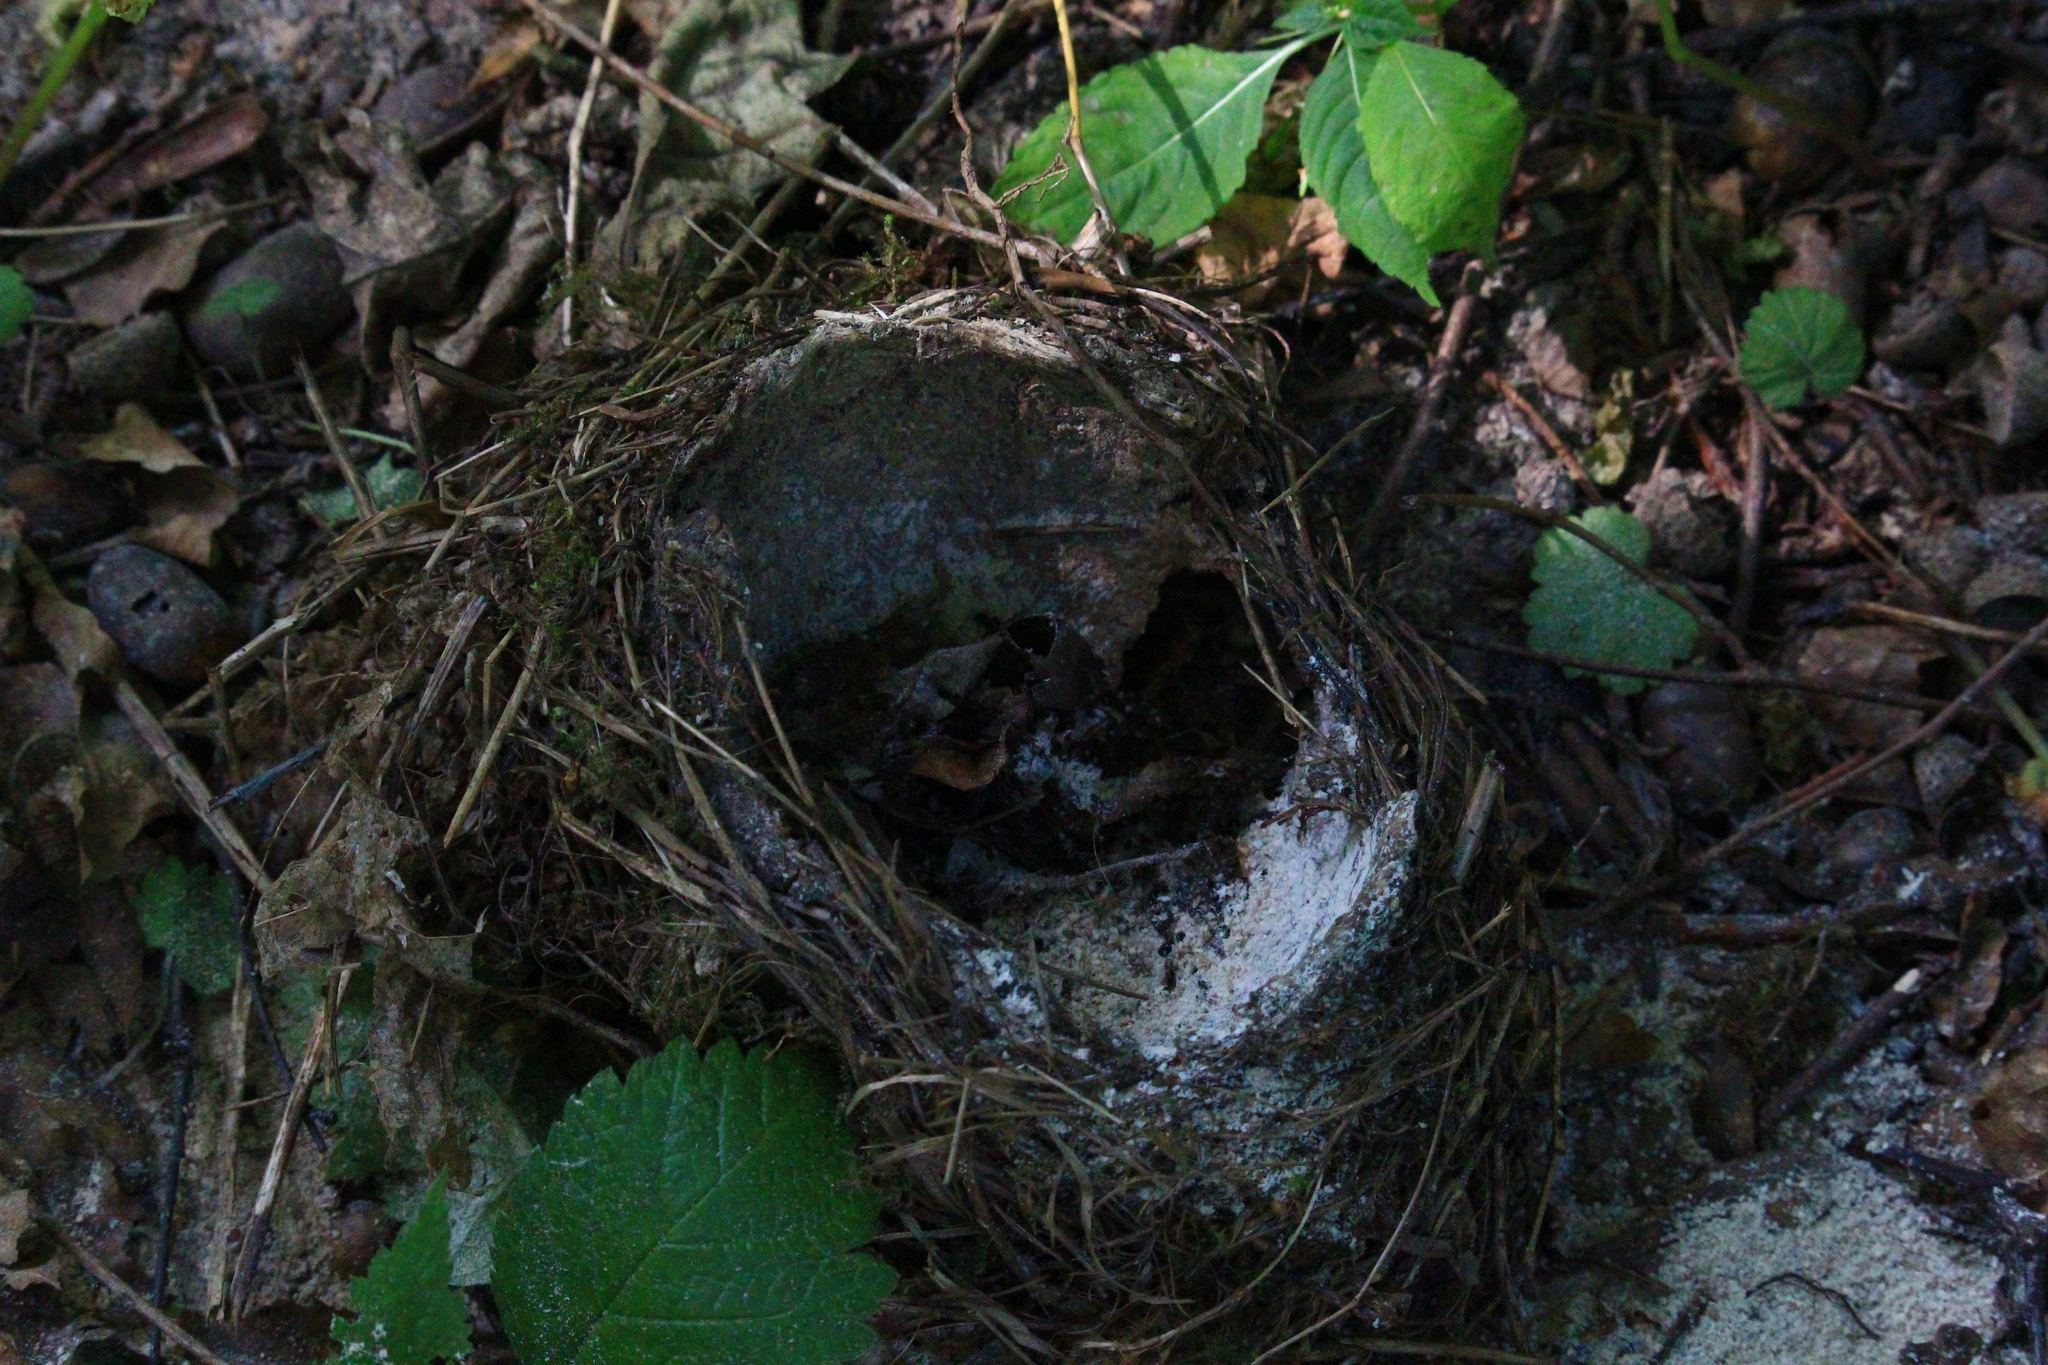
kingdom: Animalia
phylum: Chordata
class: Aves
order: Passeriformes
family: Turdidae
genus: Turdus
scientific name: Turdus philomelos
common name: Song thrush
